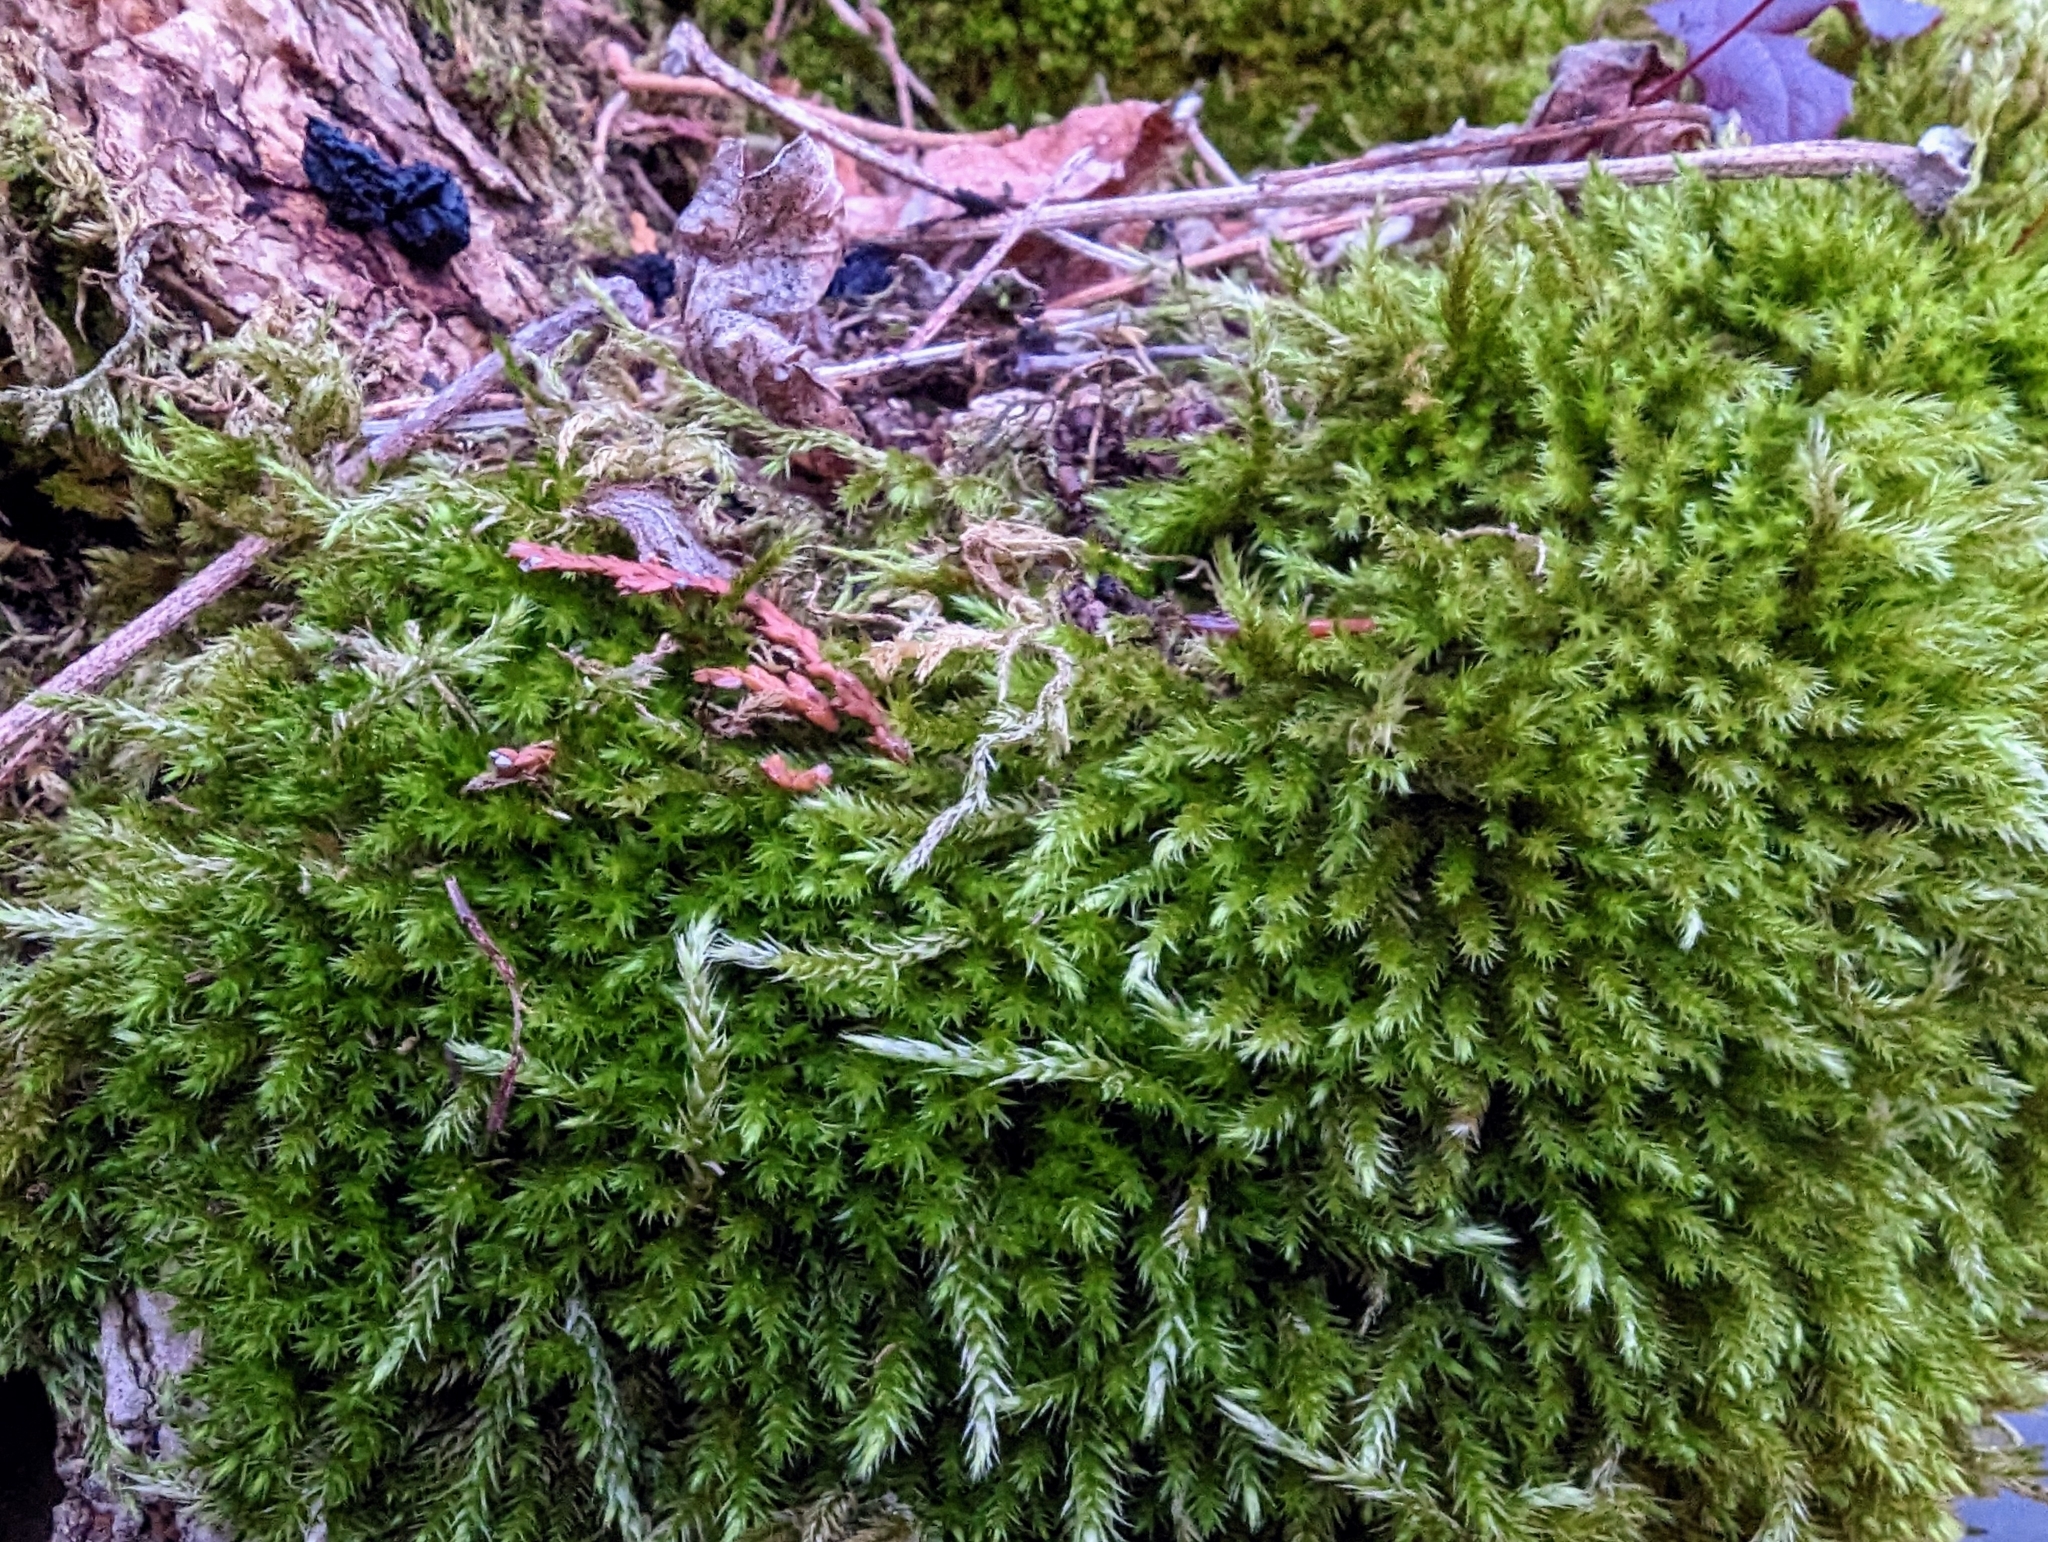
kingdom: Plantae
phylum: Bryophyta
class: Bryopsida
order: Hypnales
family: Brachytheciaceae
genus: Homalothecium
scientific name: Homalothecium fulgescens
